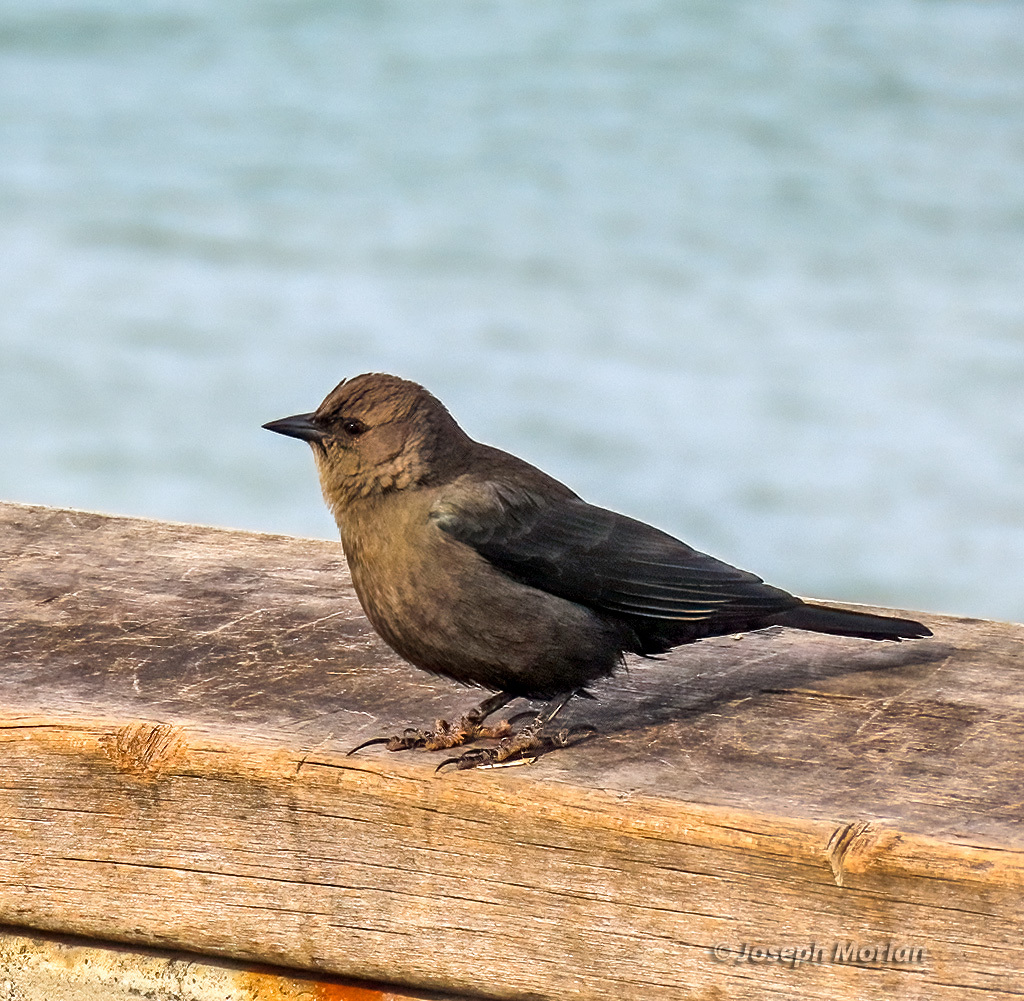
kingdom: Animalia
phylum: Chordata
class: Aves
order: Passeriformes
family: Icteridae
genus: Euphagus
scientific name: Euphagus cyanocephalus
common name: Brewer's blackbird
